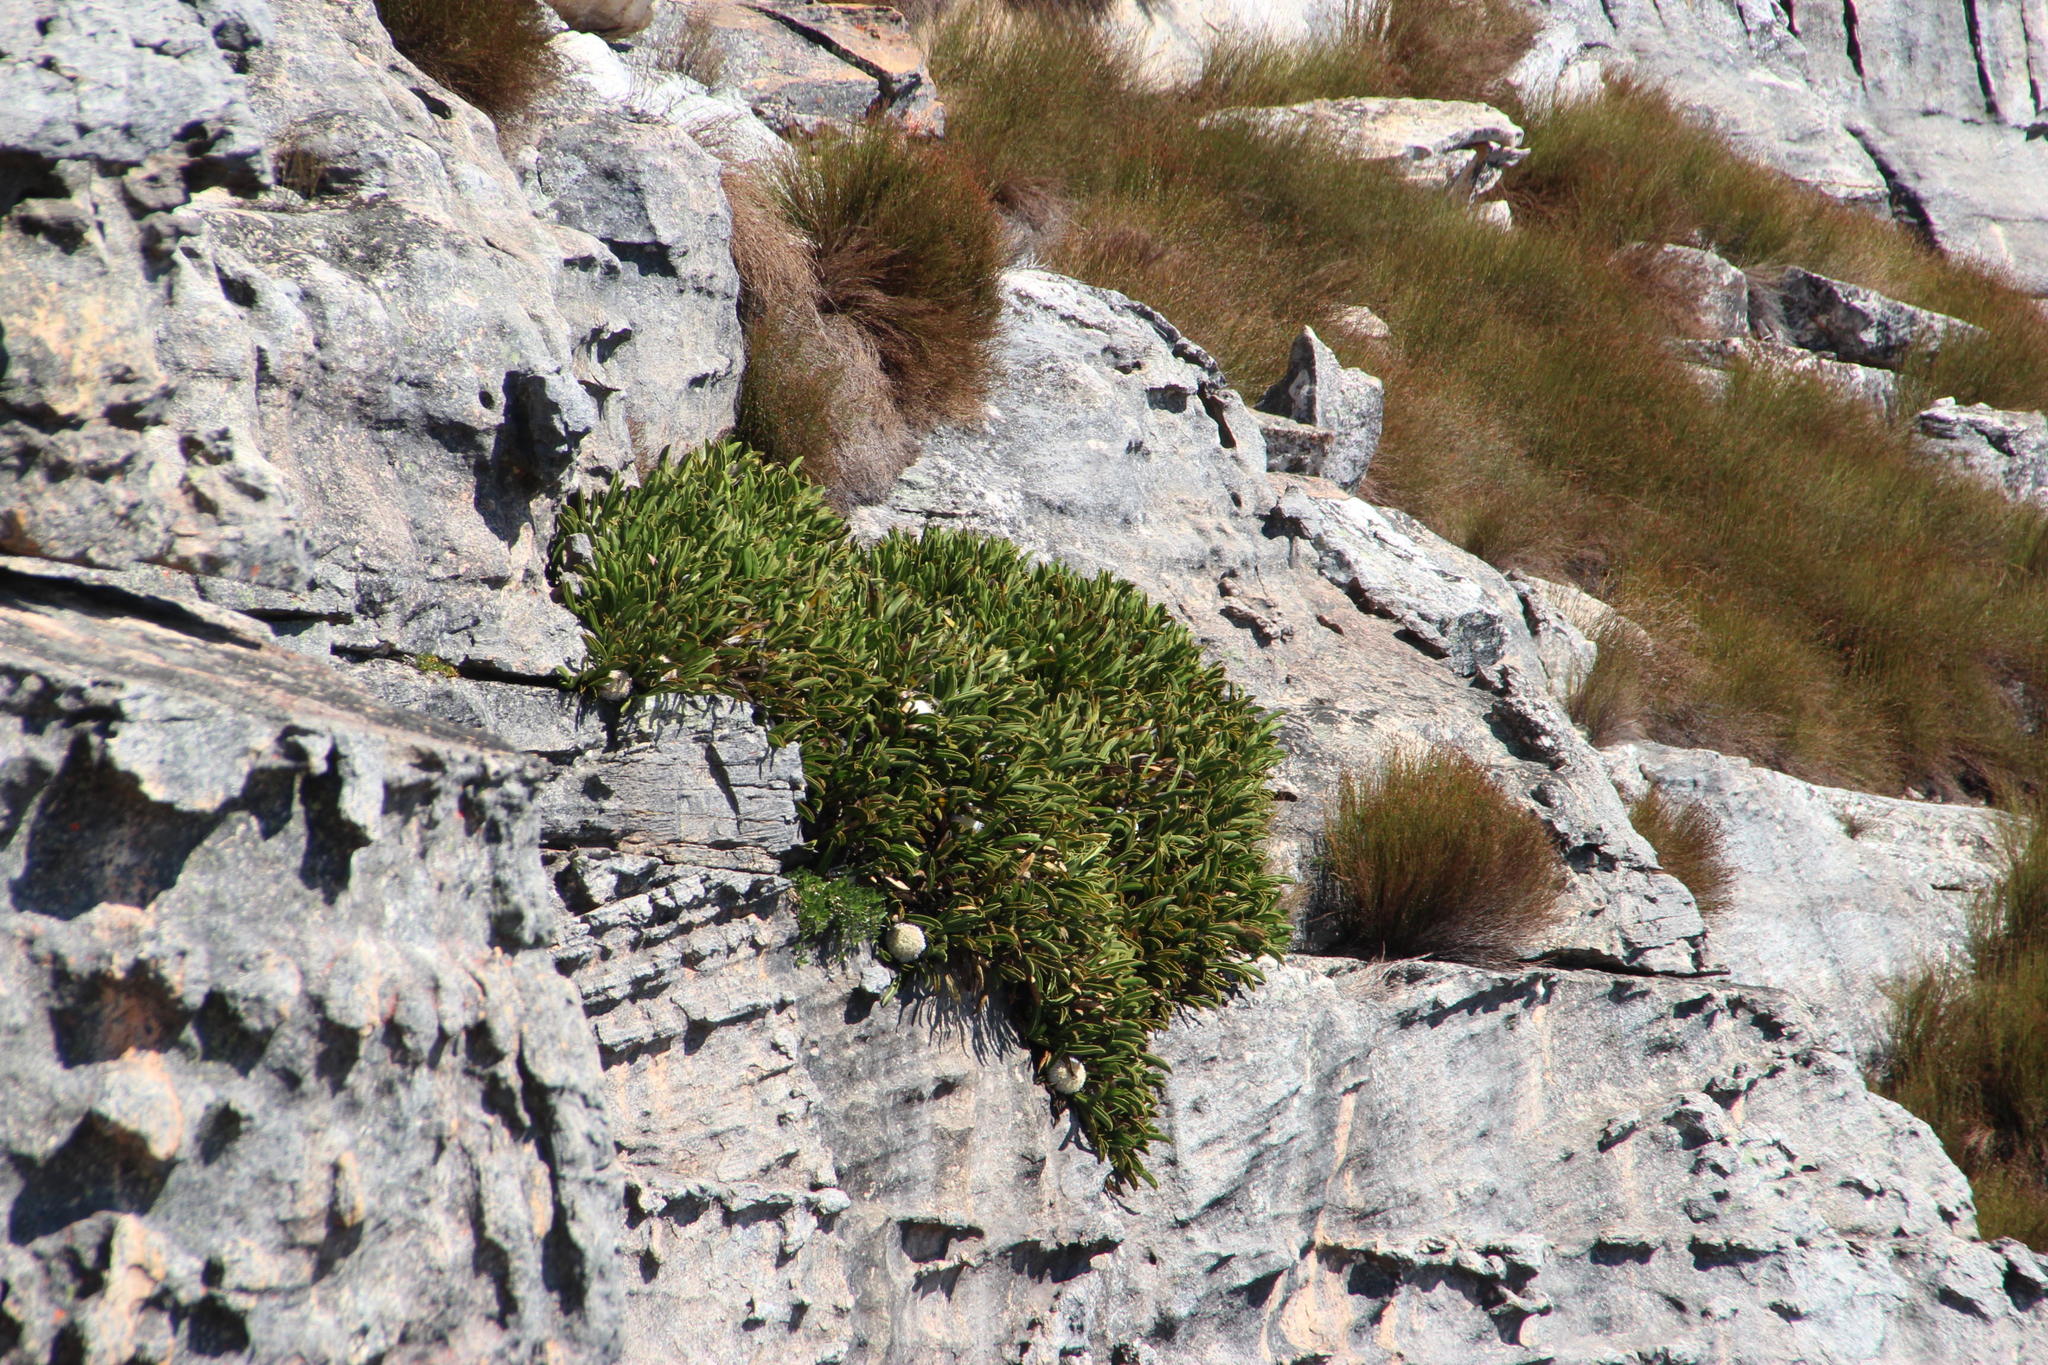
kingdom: Plantae
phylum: Tracheophyta
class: Magnoliopsida
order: Proteales
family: Proteaceae
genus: Protea
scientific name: Protea cryophila
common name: Snow protea
